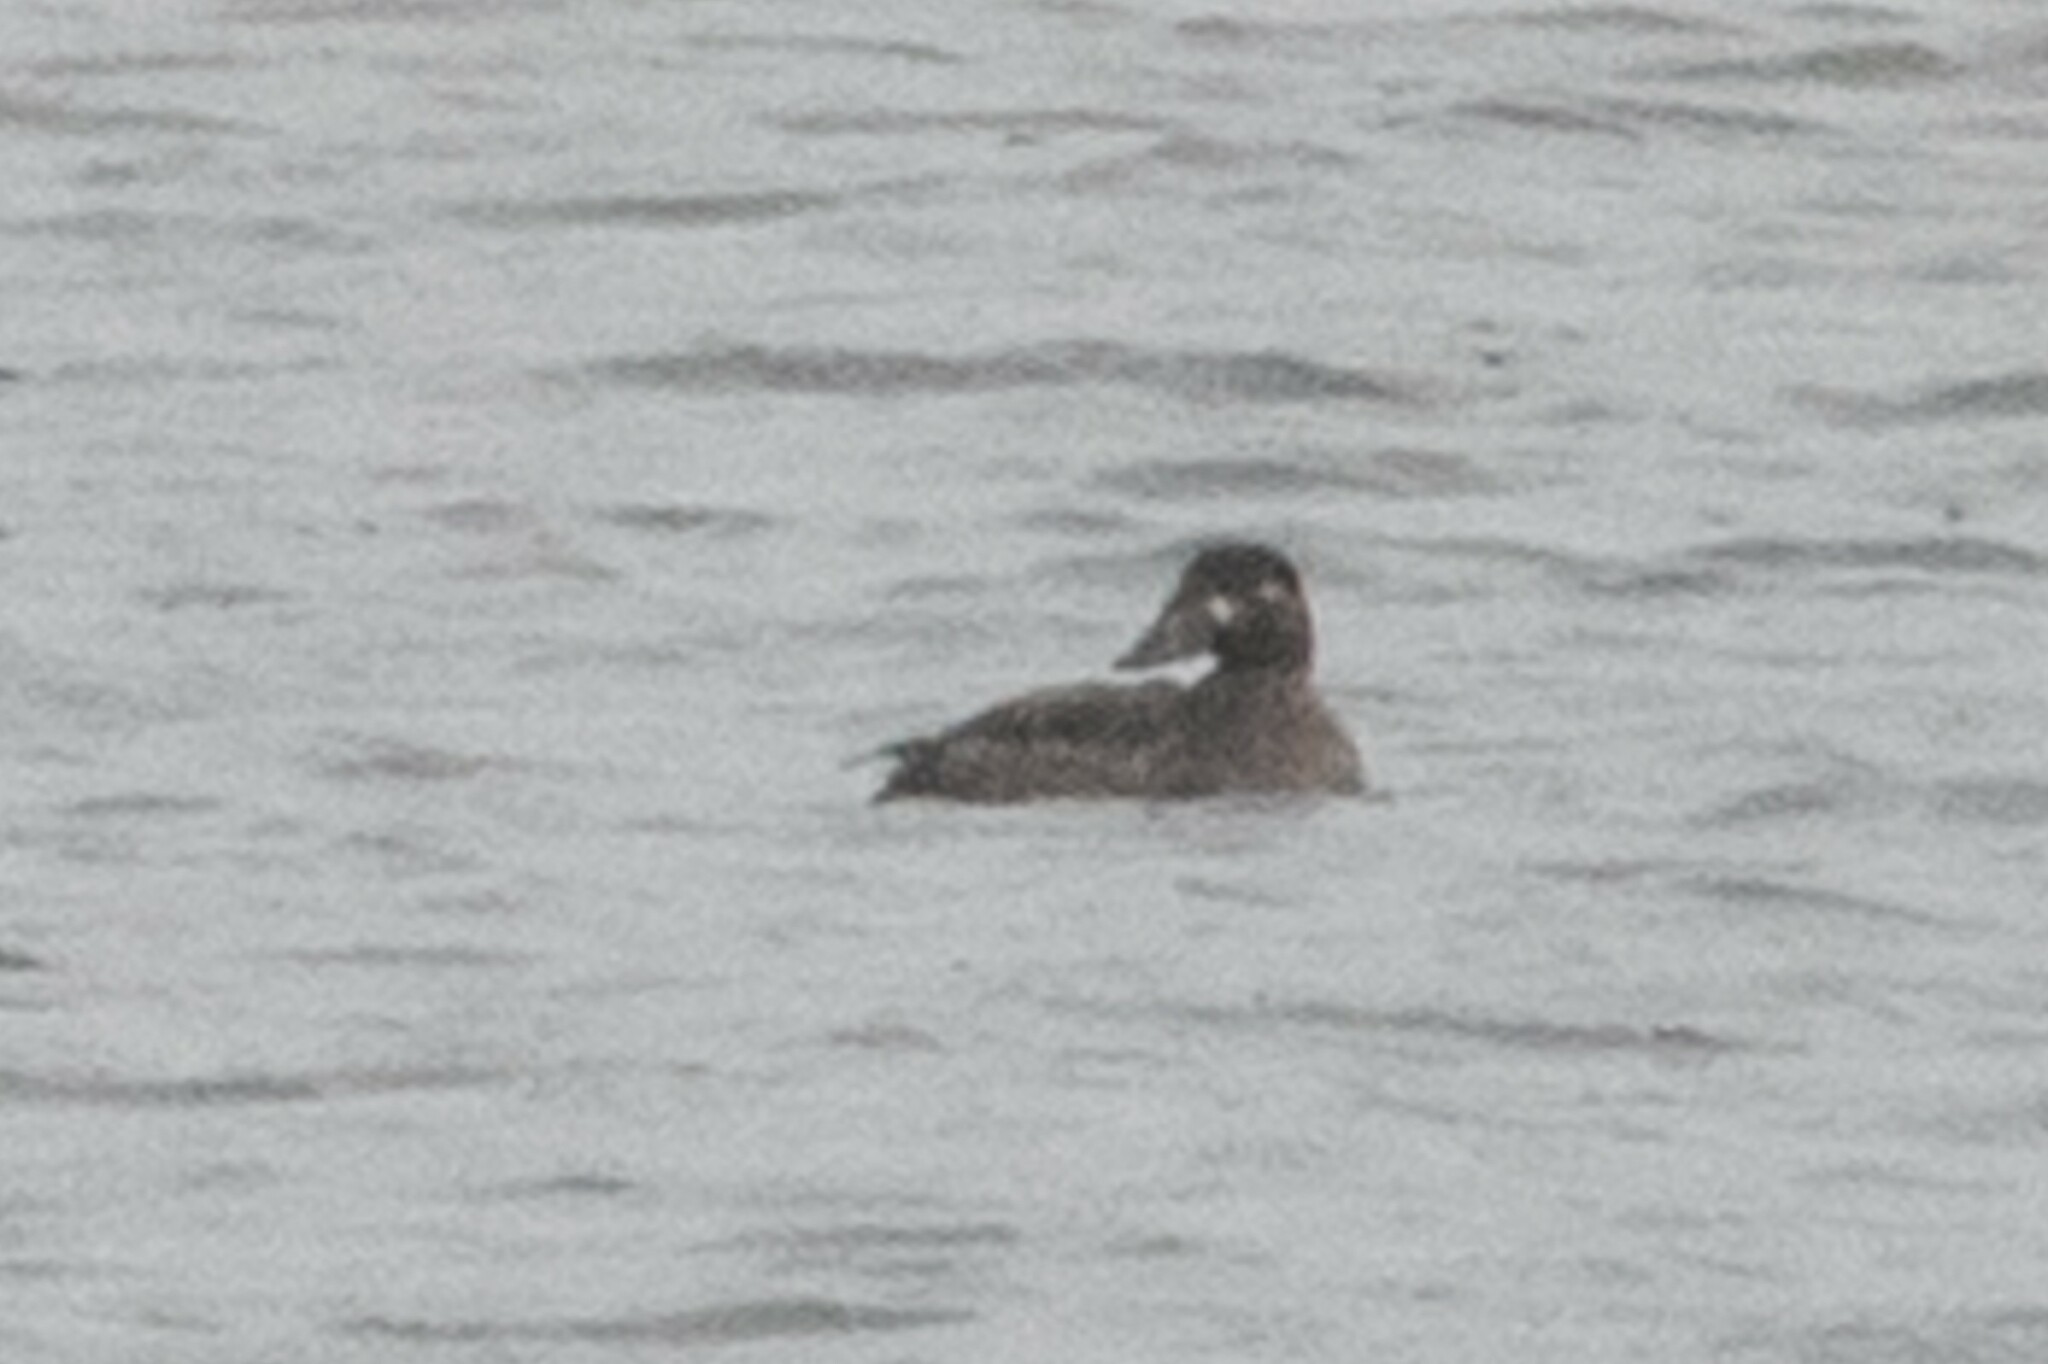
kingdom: Animalia
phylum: Chordata
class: Aves
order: Anseriformes
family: Anatidae
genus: Melanitta
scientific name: Melanitta perspicillata
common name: Surf scoter
